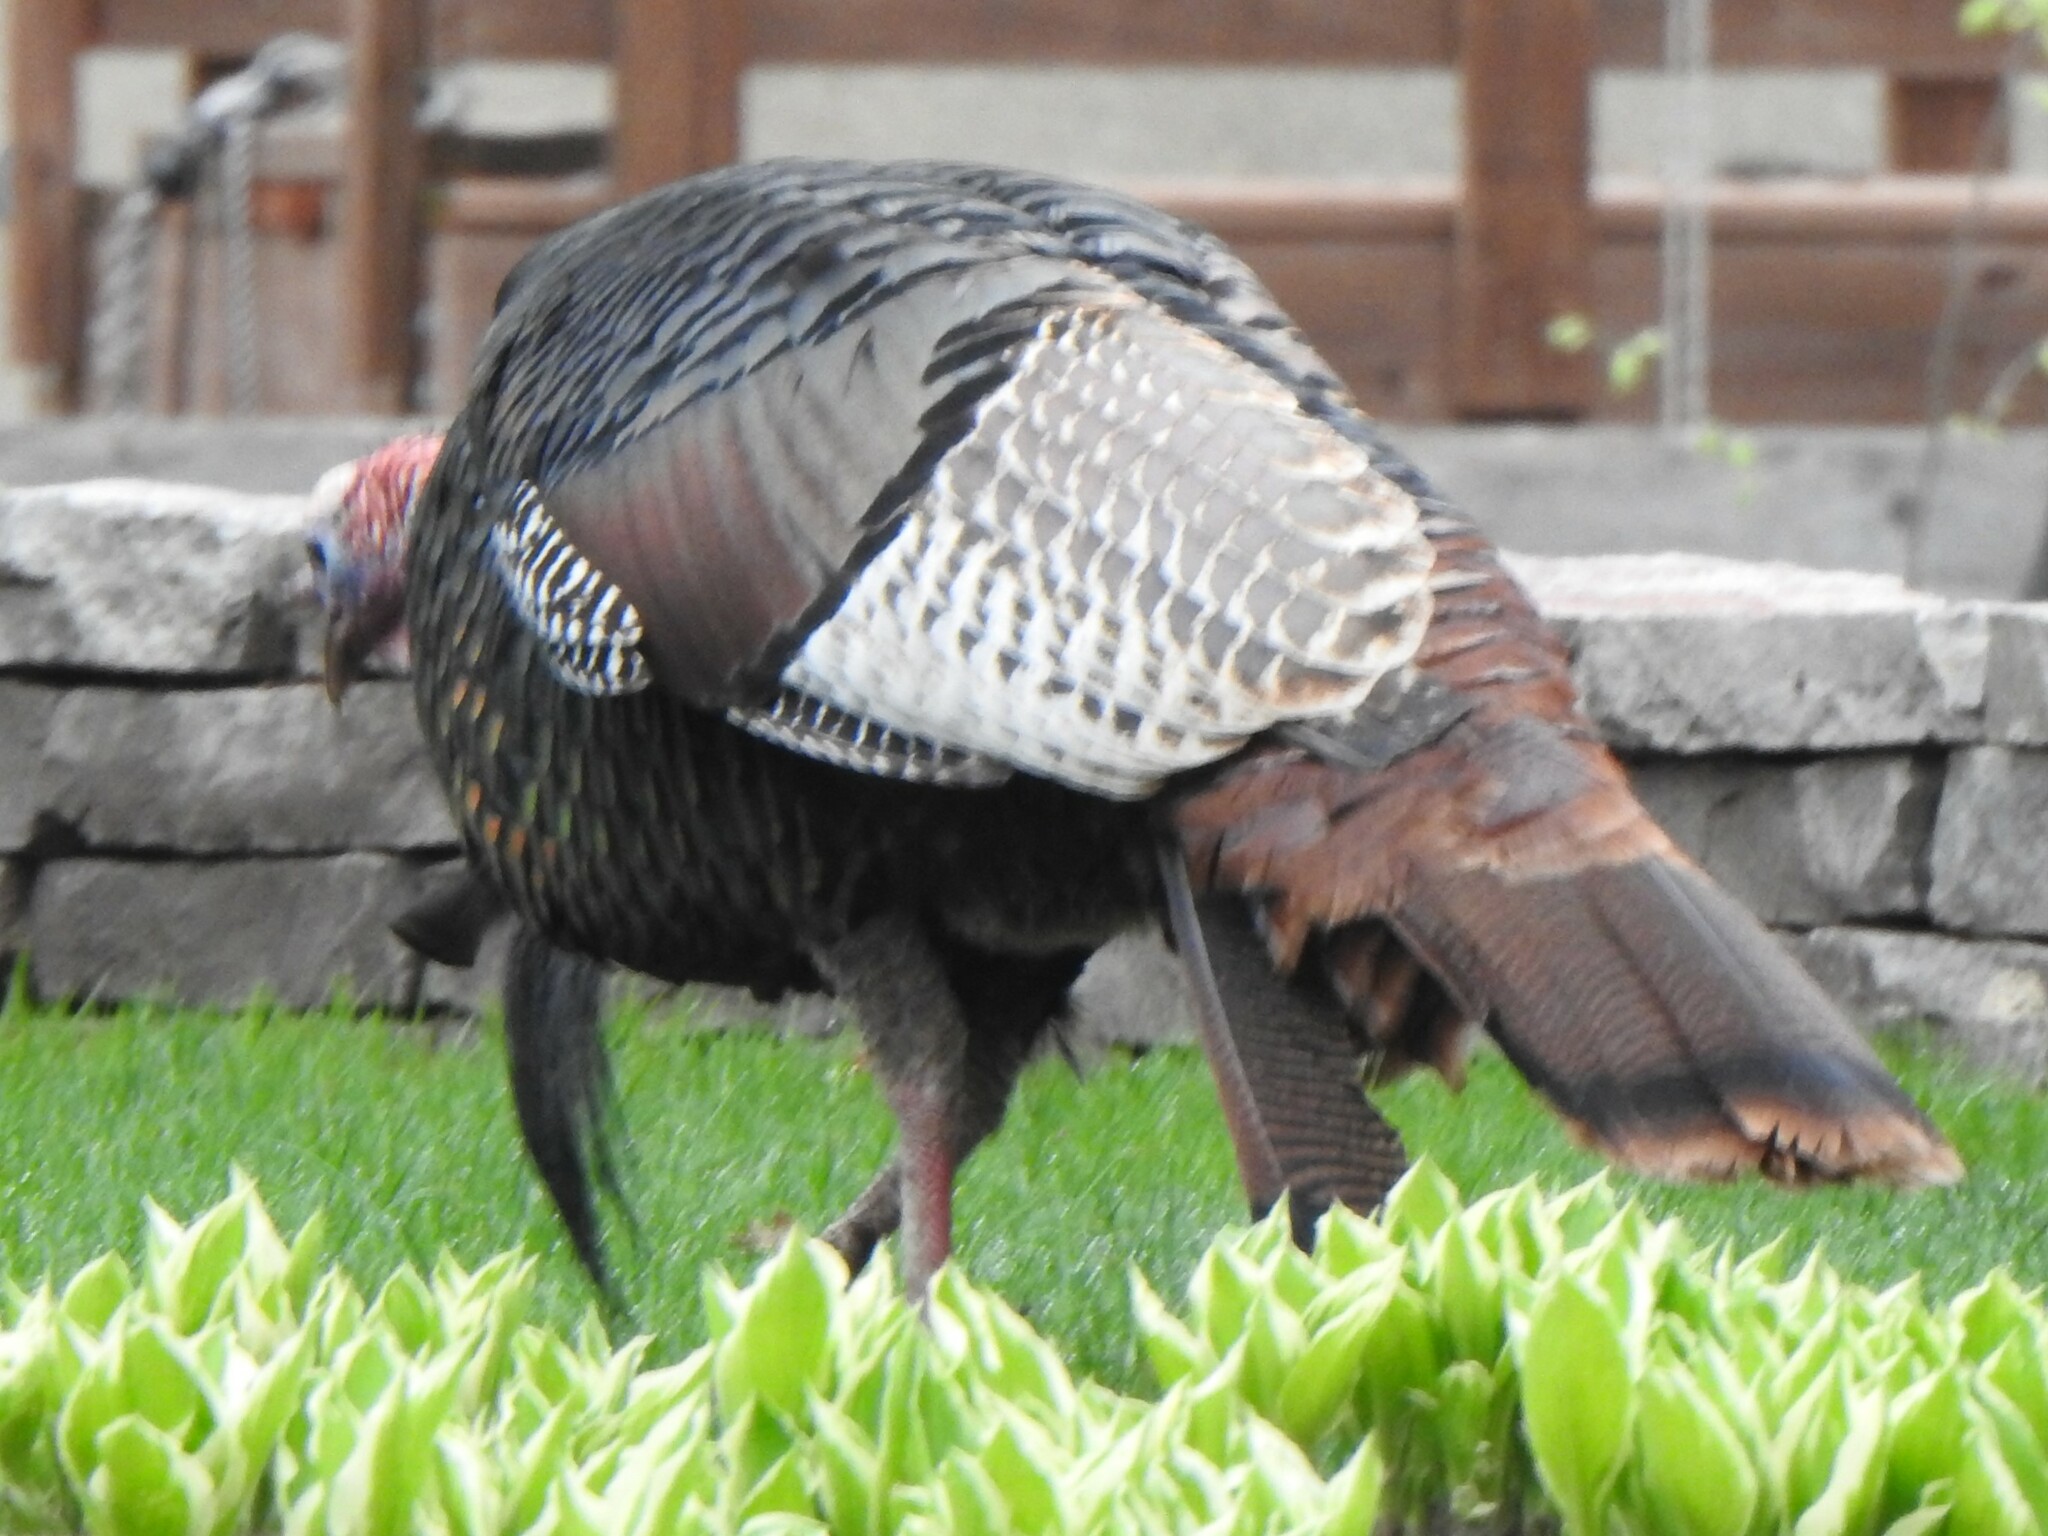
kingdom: Animalia
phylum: Chordata
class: Aves
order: Galliformes
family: Phasianidae
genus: Meleagris
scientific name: Meleagris gallopavo
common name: Wild turkey
